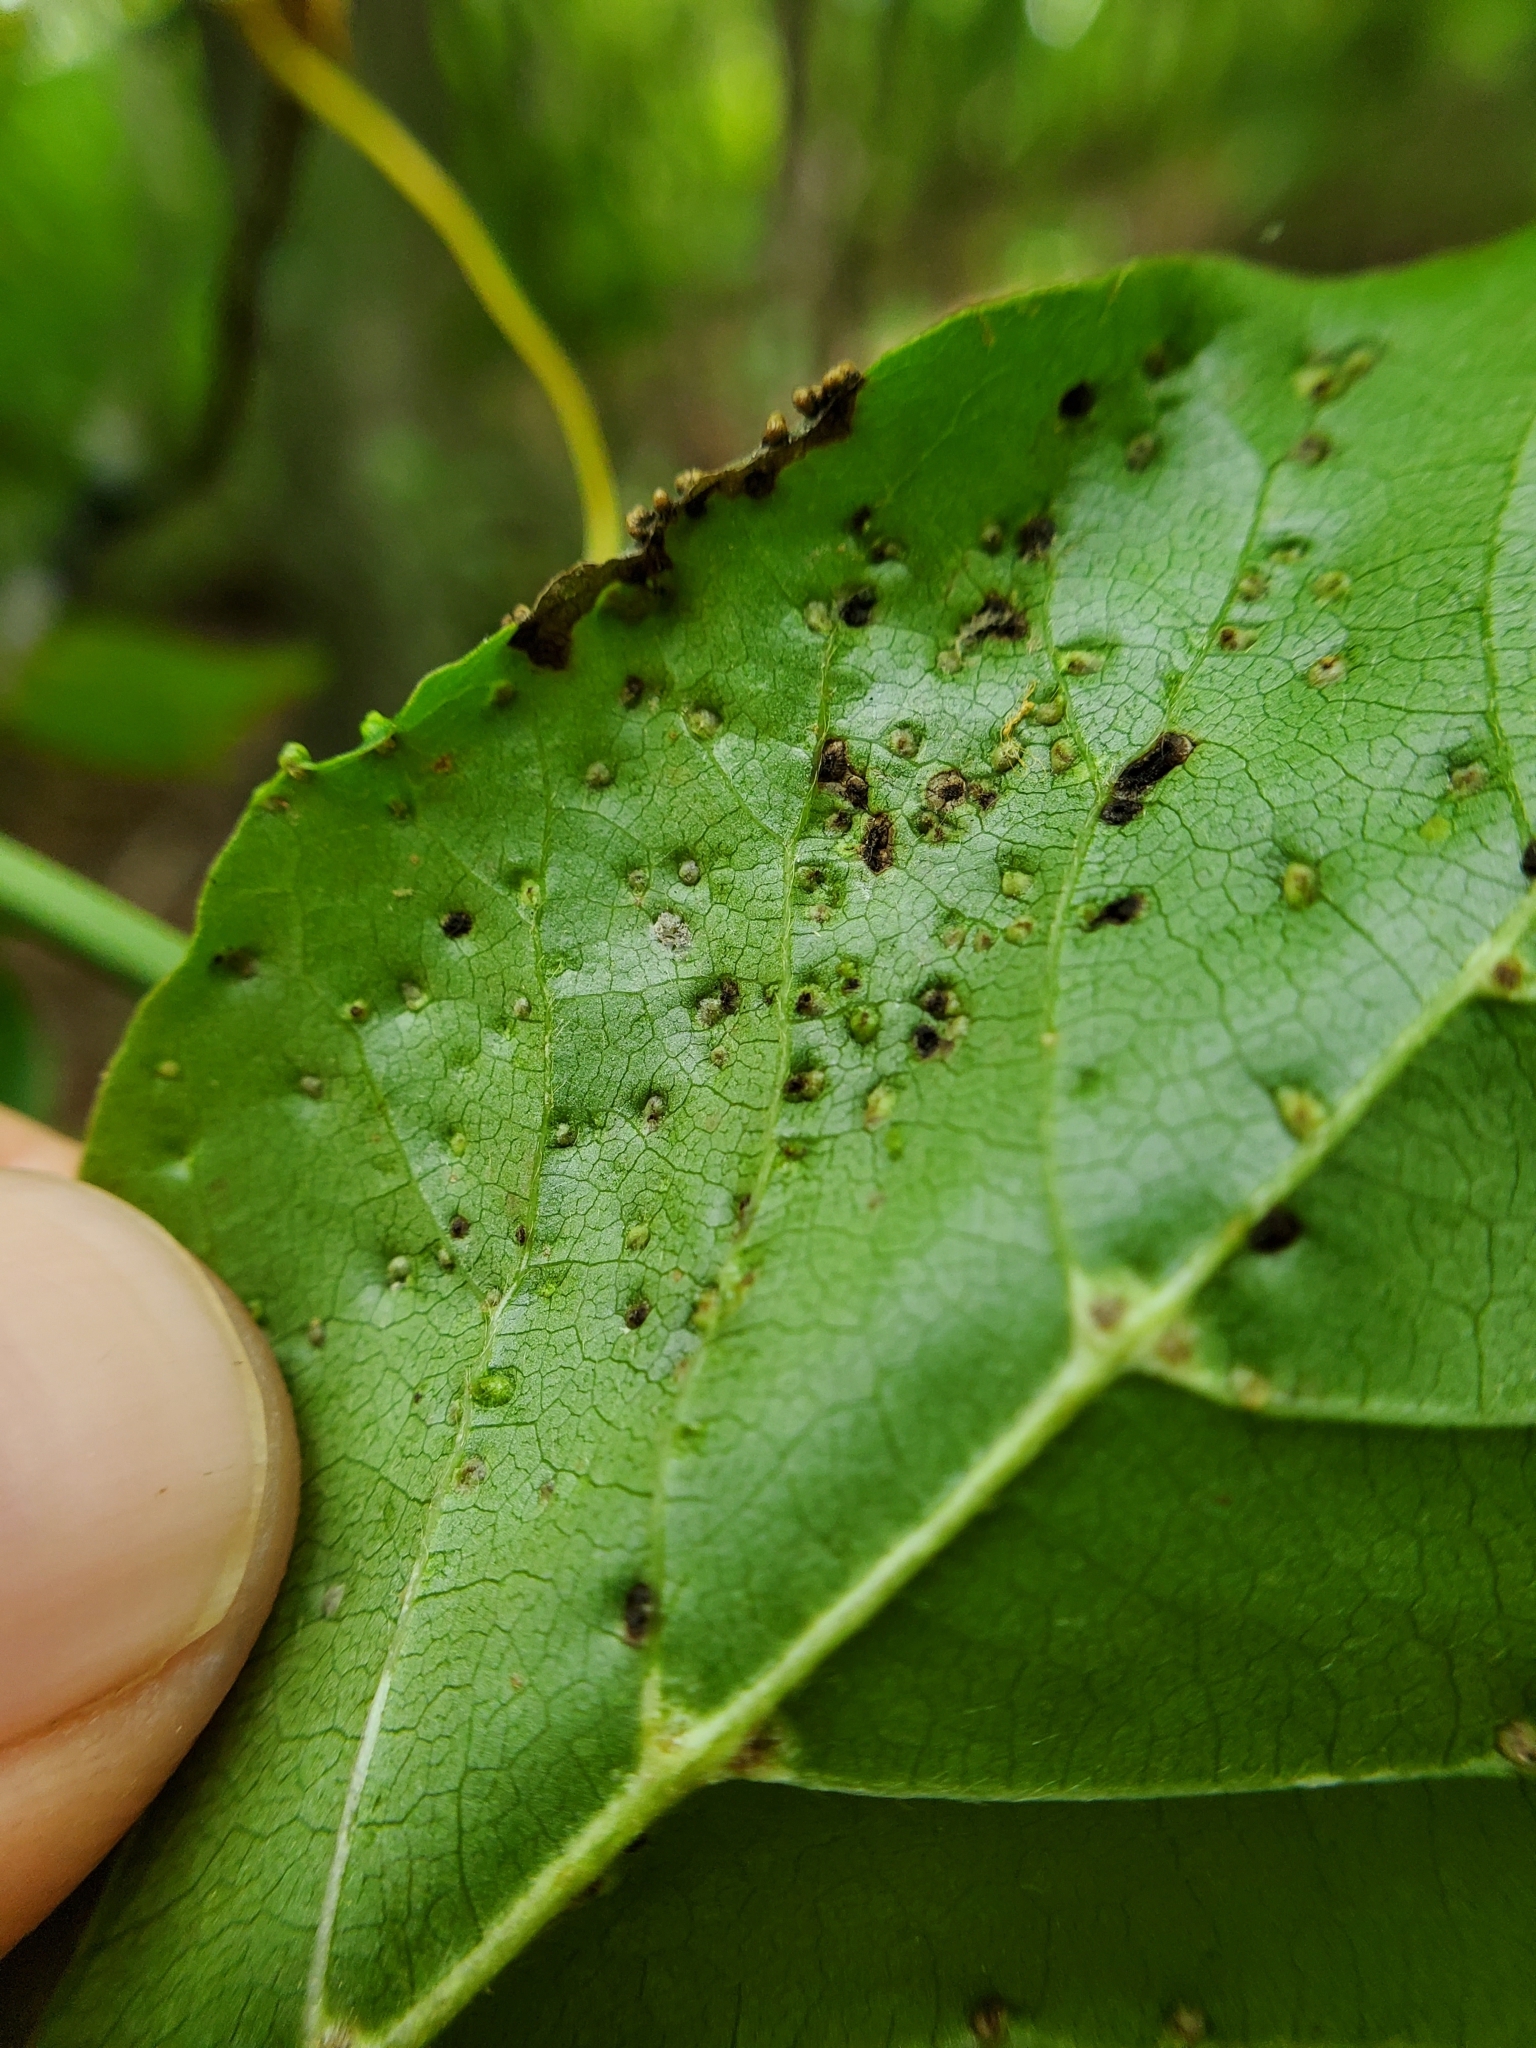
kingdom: Animalia
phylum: Arthropoda
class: Arachnida
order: Trombidiformes
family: Eriophyidae
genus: Aceria
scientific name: Aceria
